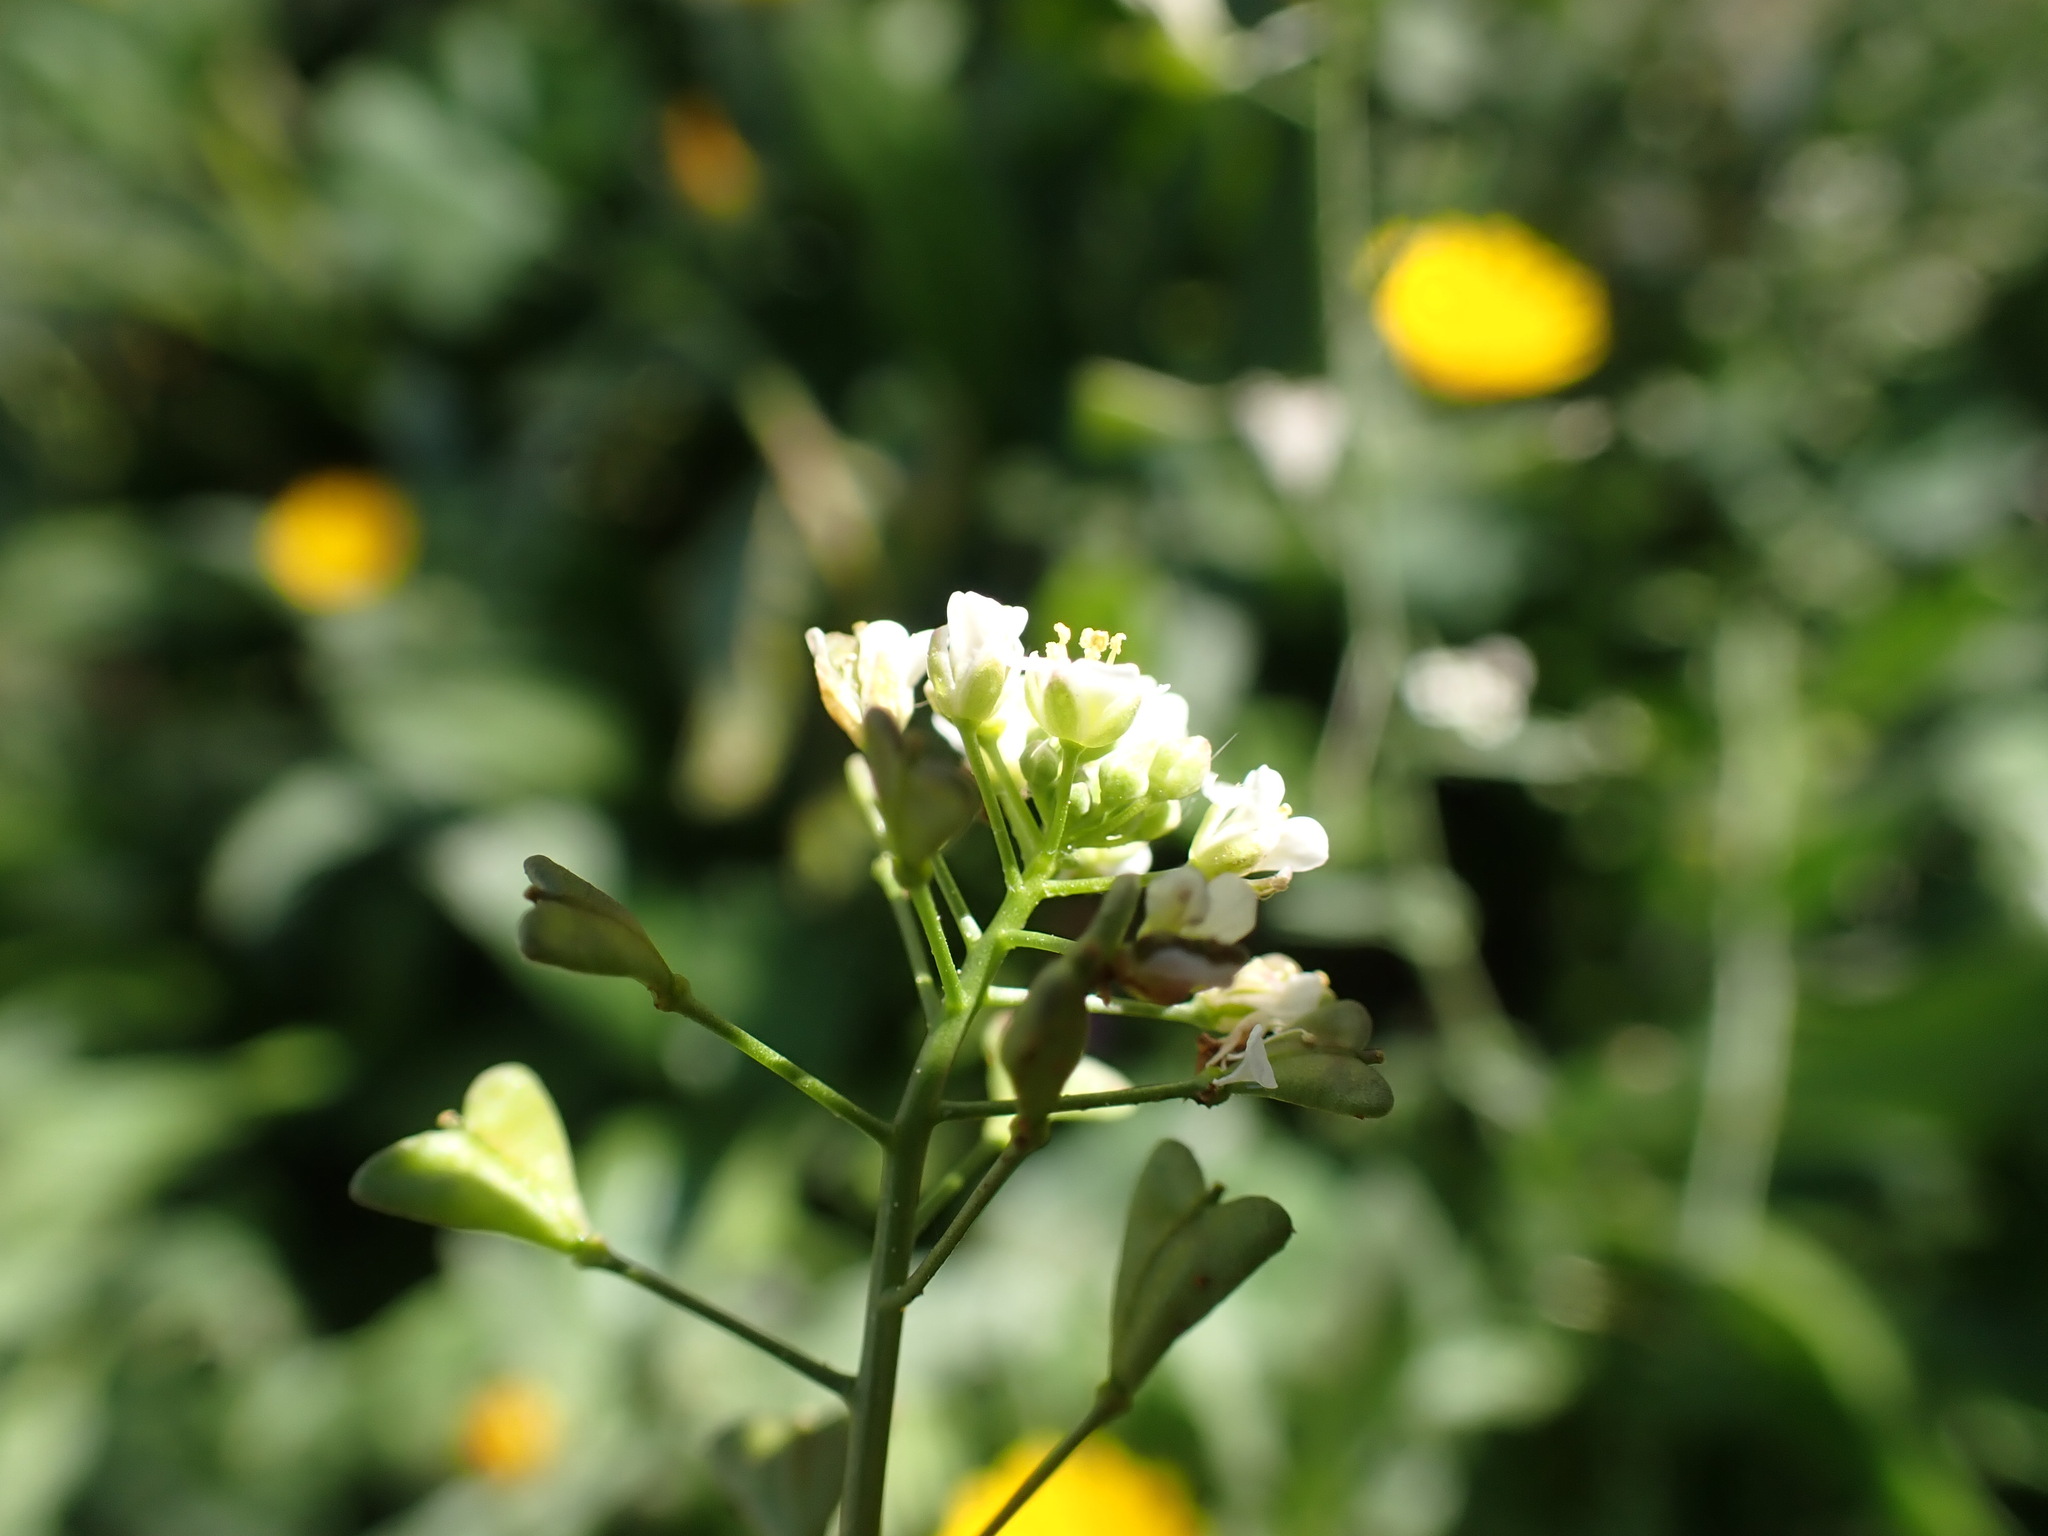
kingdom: Plantae
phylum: Tracheophyta
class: Magnoliopsida
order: Brassicales
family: Brassicaceae
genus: Capsella
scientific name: Capsella bursa-pastoris
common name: Shepherd's purse
